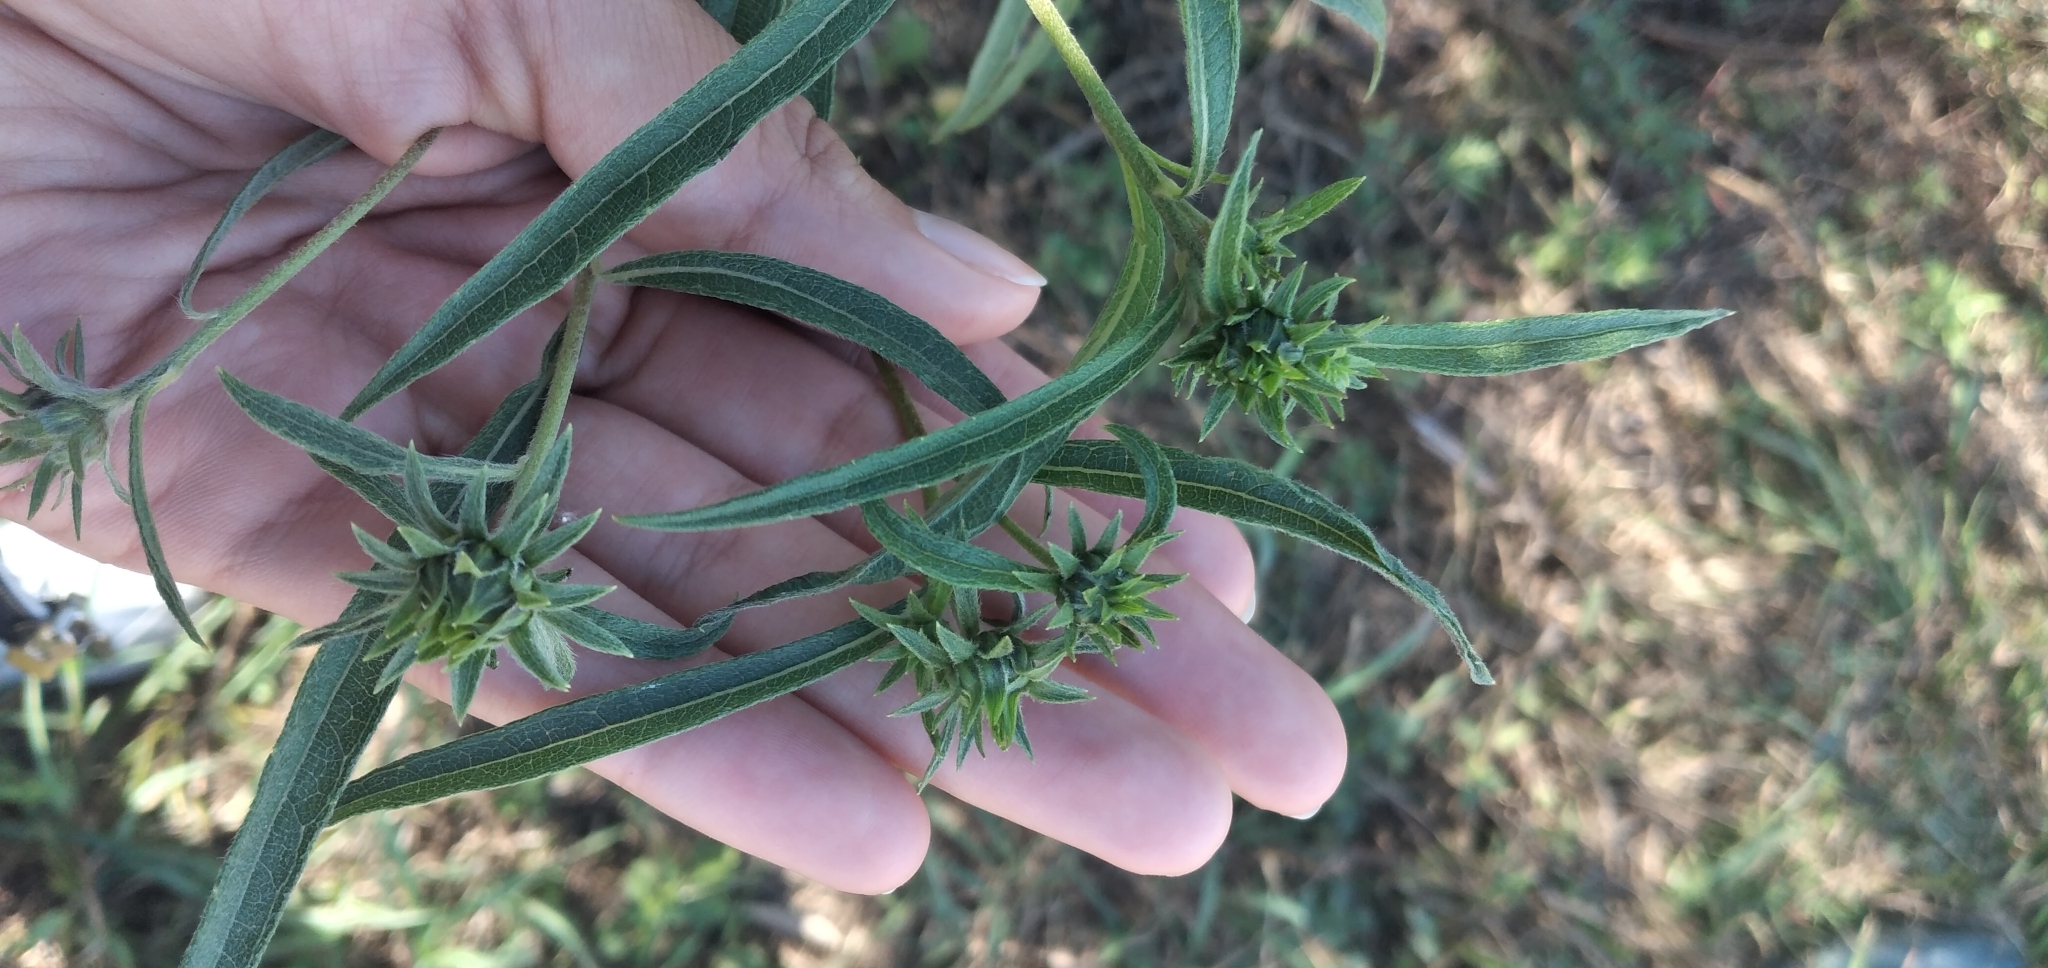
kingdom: Plantae
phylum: Tracheophyta
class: Magnoliopsida
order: Asterales
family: Asteraceae
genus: Aldama
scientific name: Aldama tucumanensis
